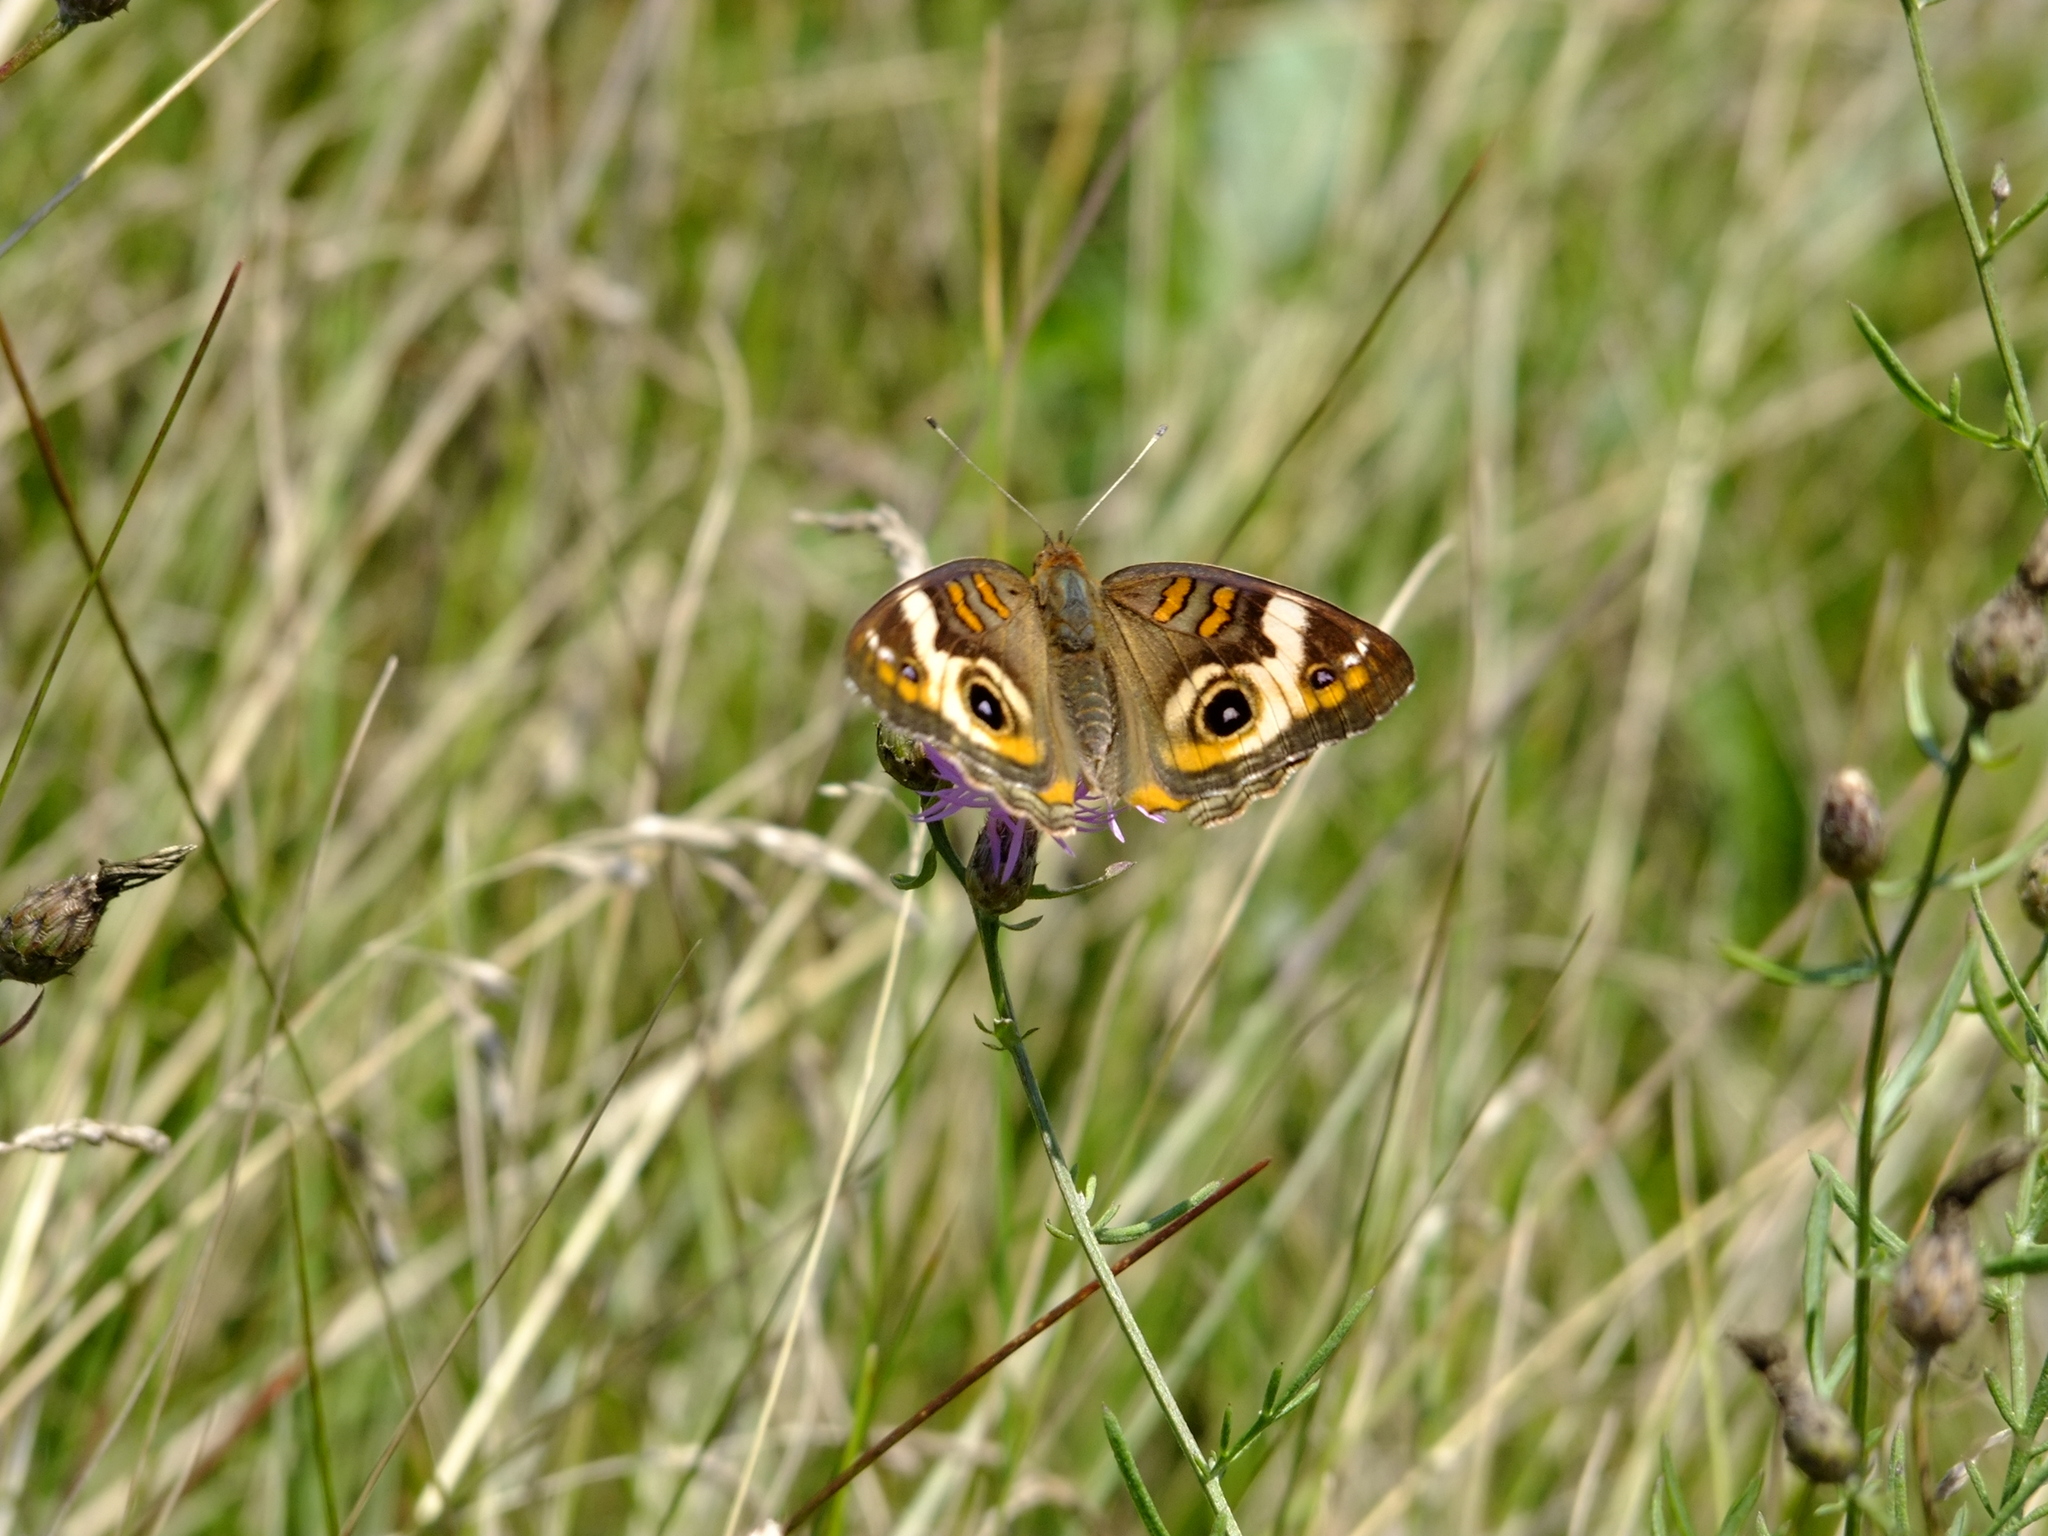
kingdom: Animalia
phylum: Arthropoda
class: Insecta
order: Lepidoptera
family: Nymphalidae
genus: Junonia
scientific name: Junonia coenia
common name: Common buckeye
